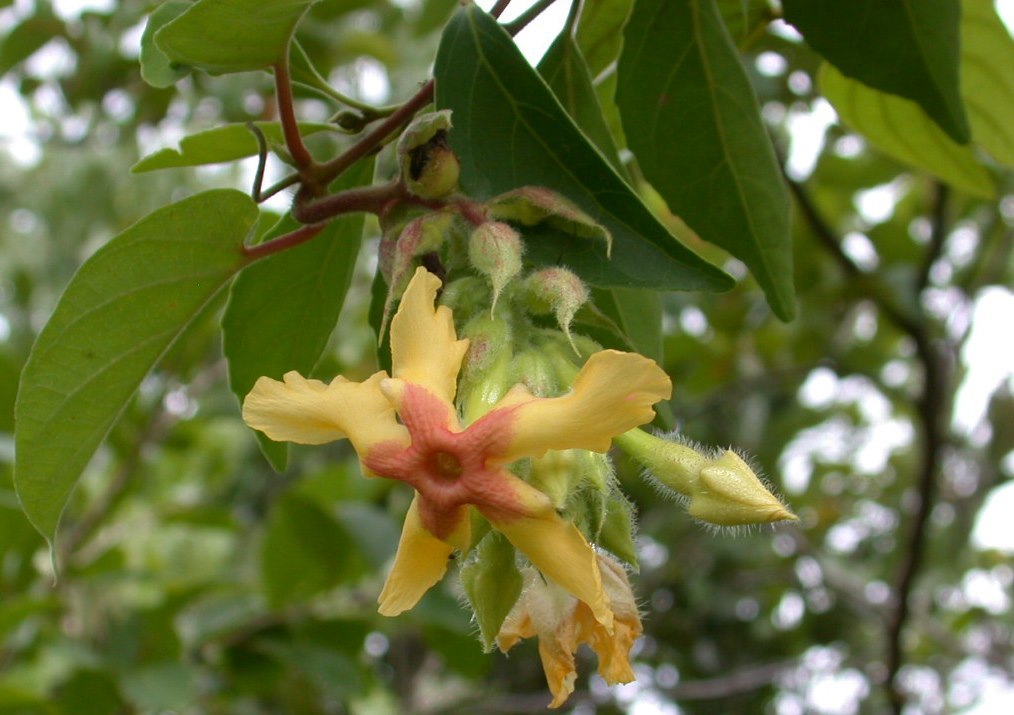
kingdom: Plantae
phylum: Tracheophyta
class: Magnoliopsida
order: Gentianales
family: Apocynaceae
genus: Mandevilla
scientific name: Mandevilla villosa
